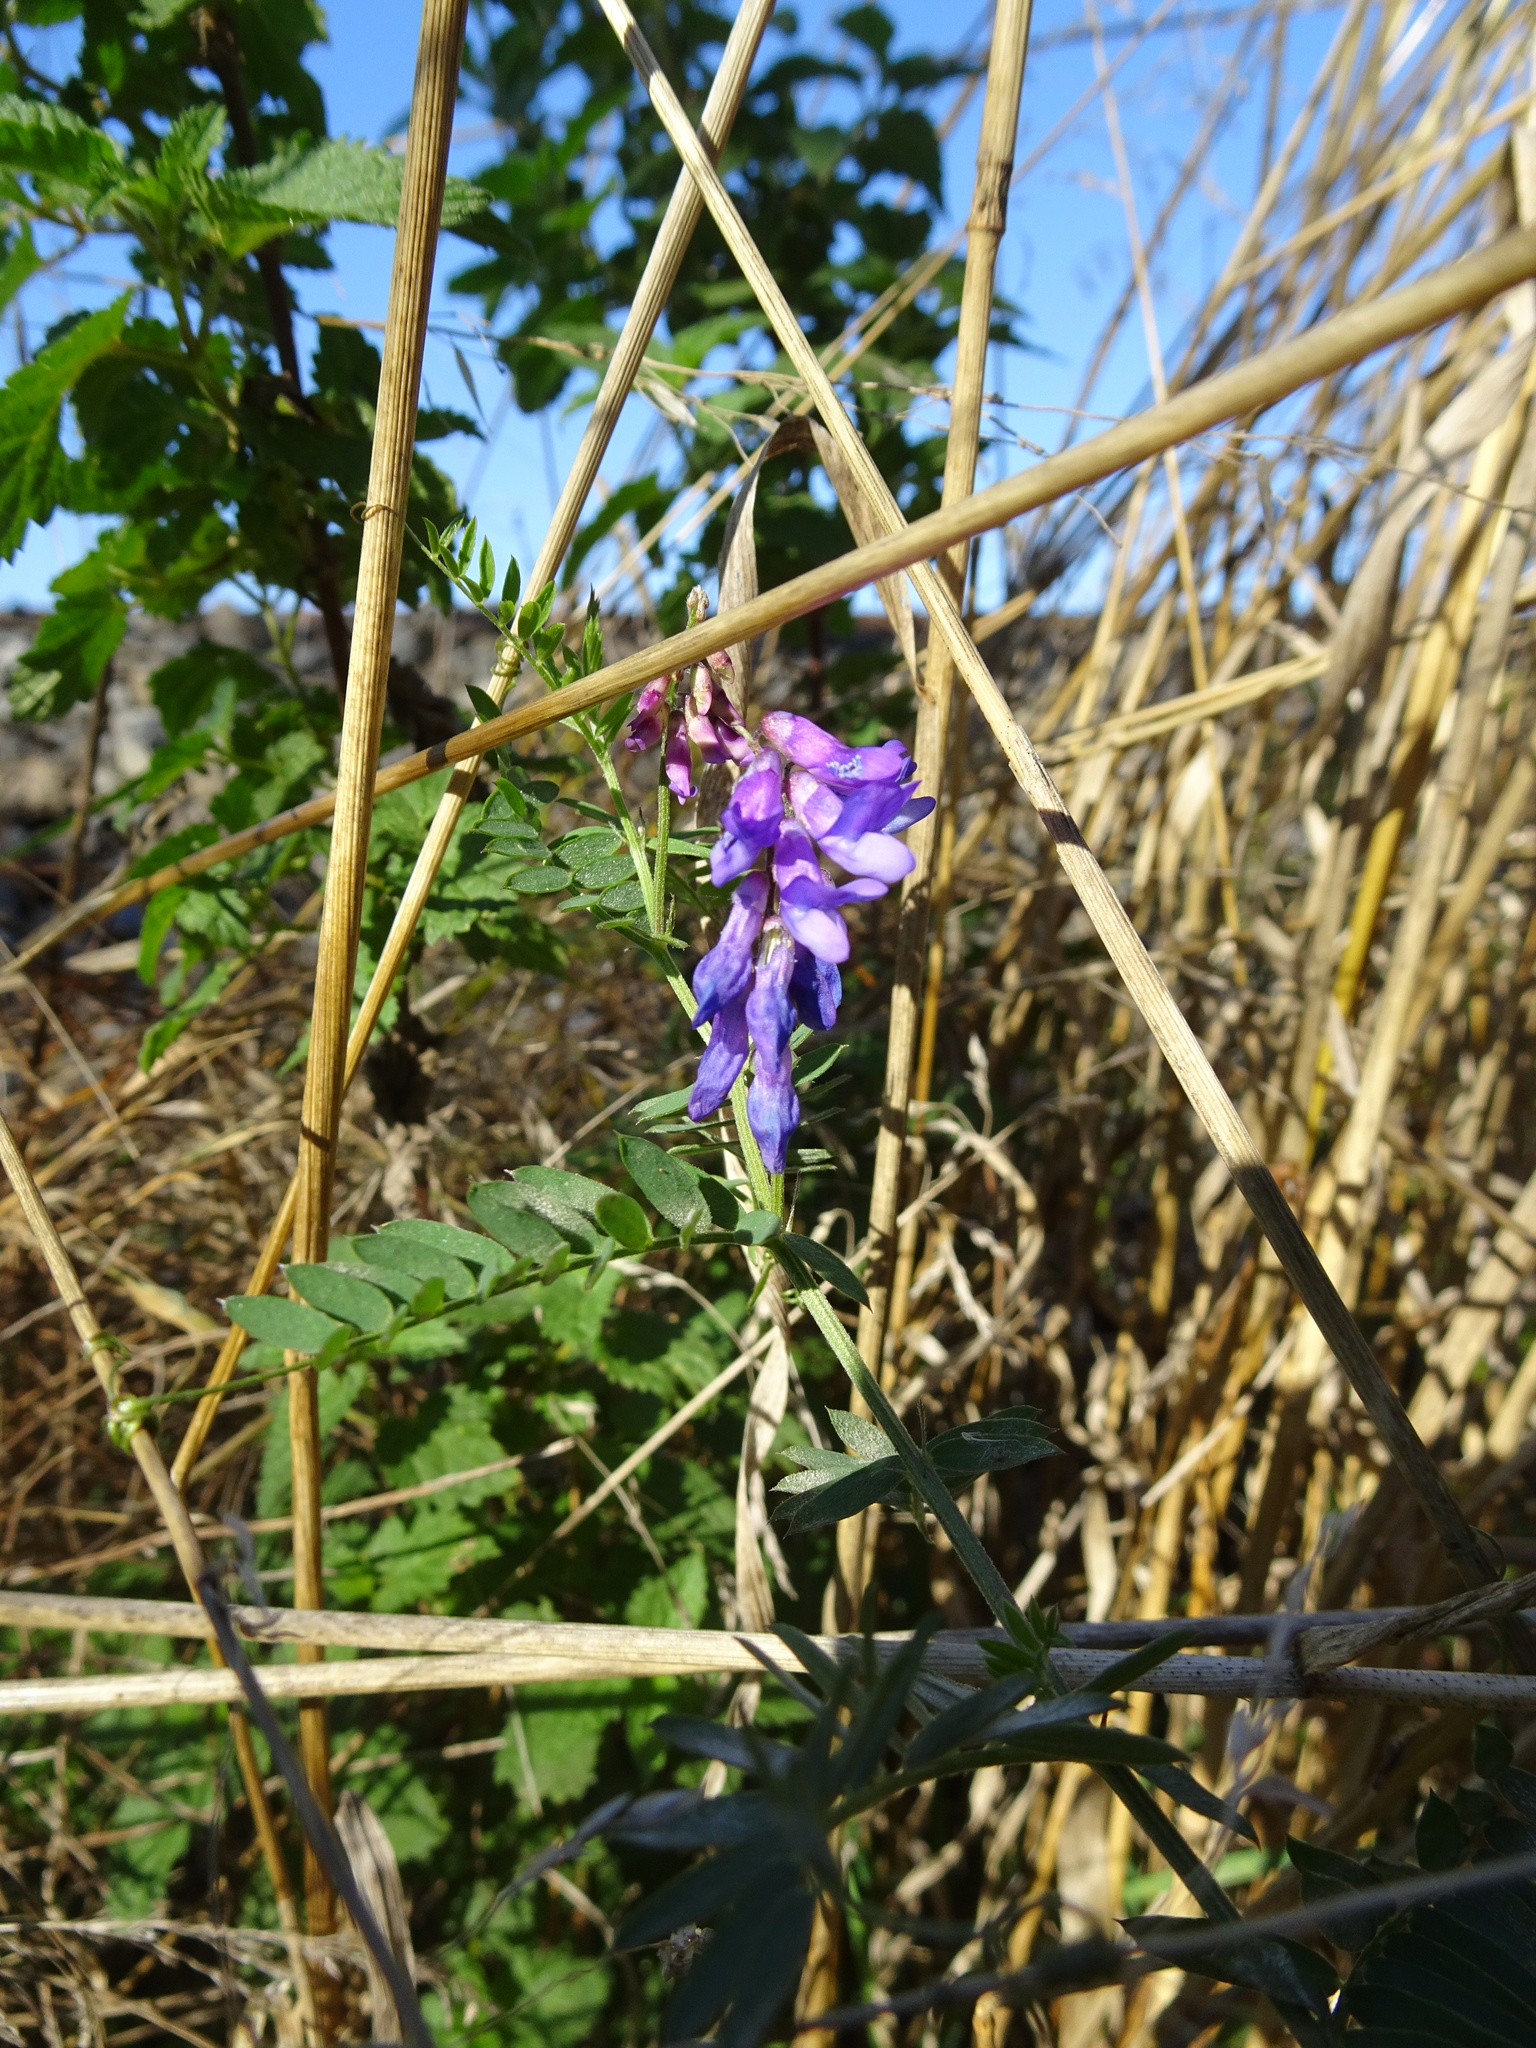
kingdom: Plantae
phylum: Tracheophyta
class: Magnoliopsida
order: Fabales
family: Fabaceae
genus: Vicia
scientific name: Vicia cracca
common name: Bird vetch
